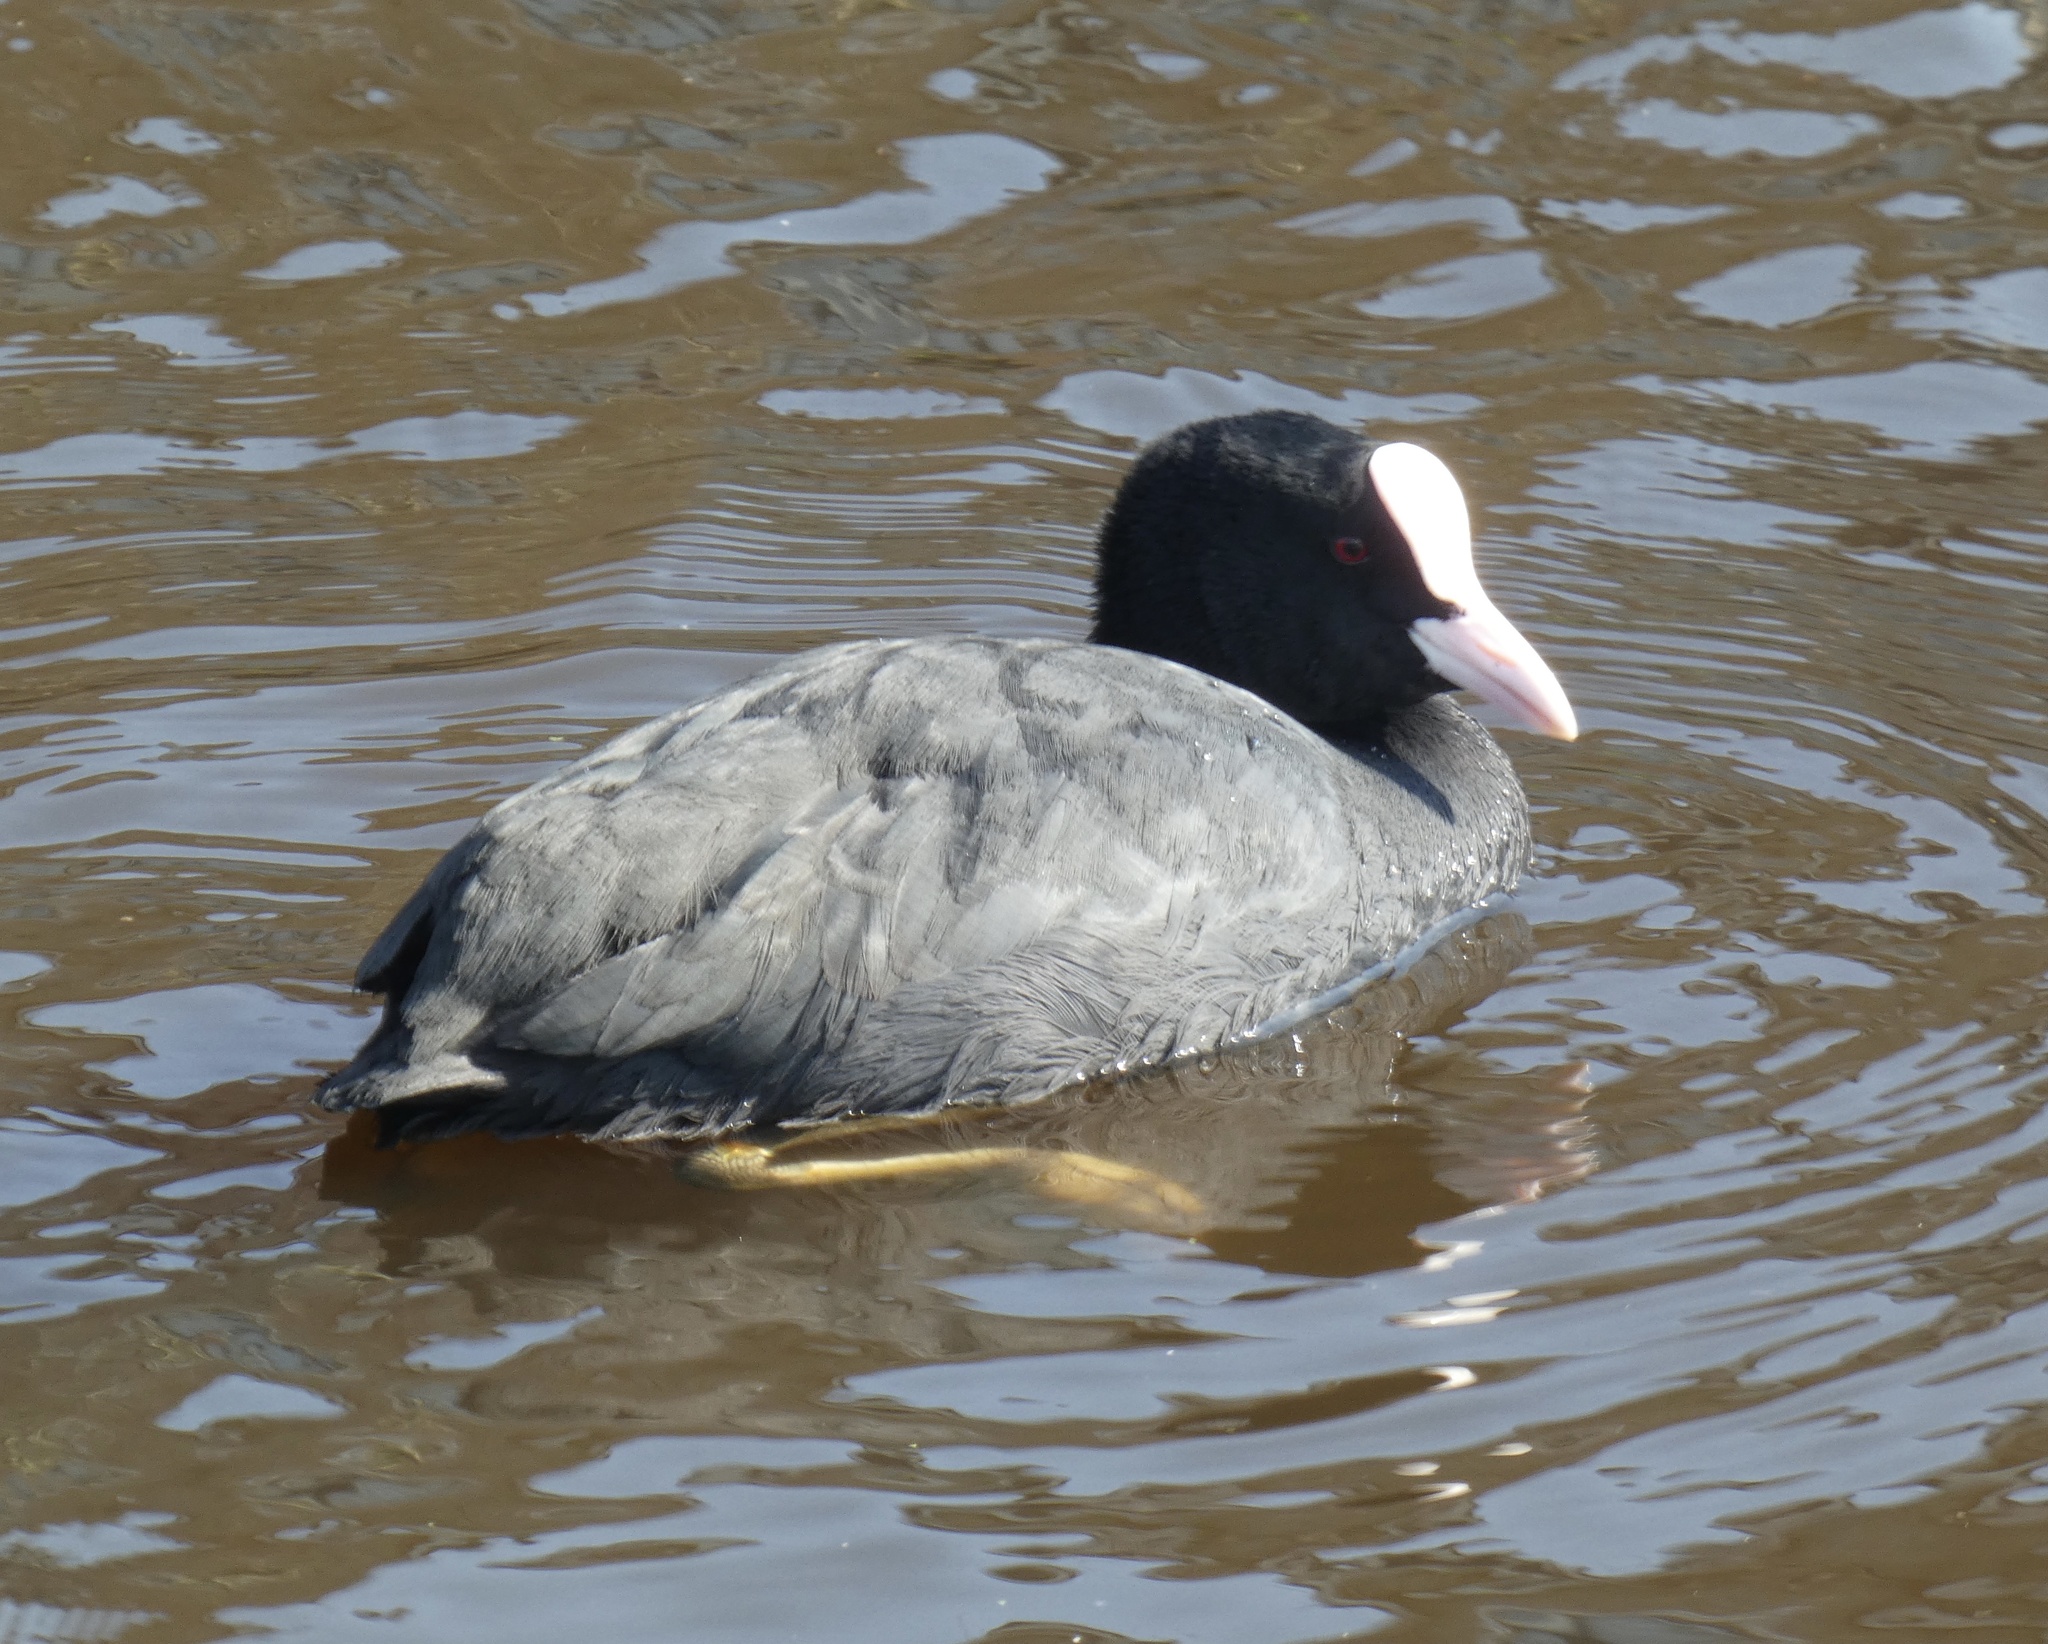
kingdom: Animalia
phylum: Chordata
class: Aves
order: Gruiformes
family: Rallidae
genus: Fulica
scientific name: Fulica atra
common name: Eurasian coot
